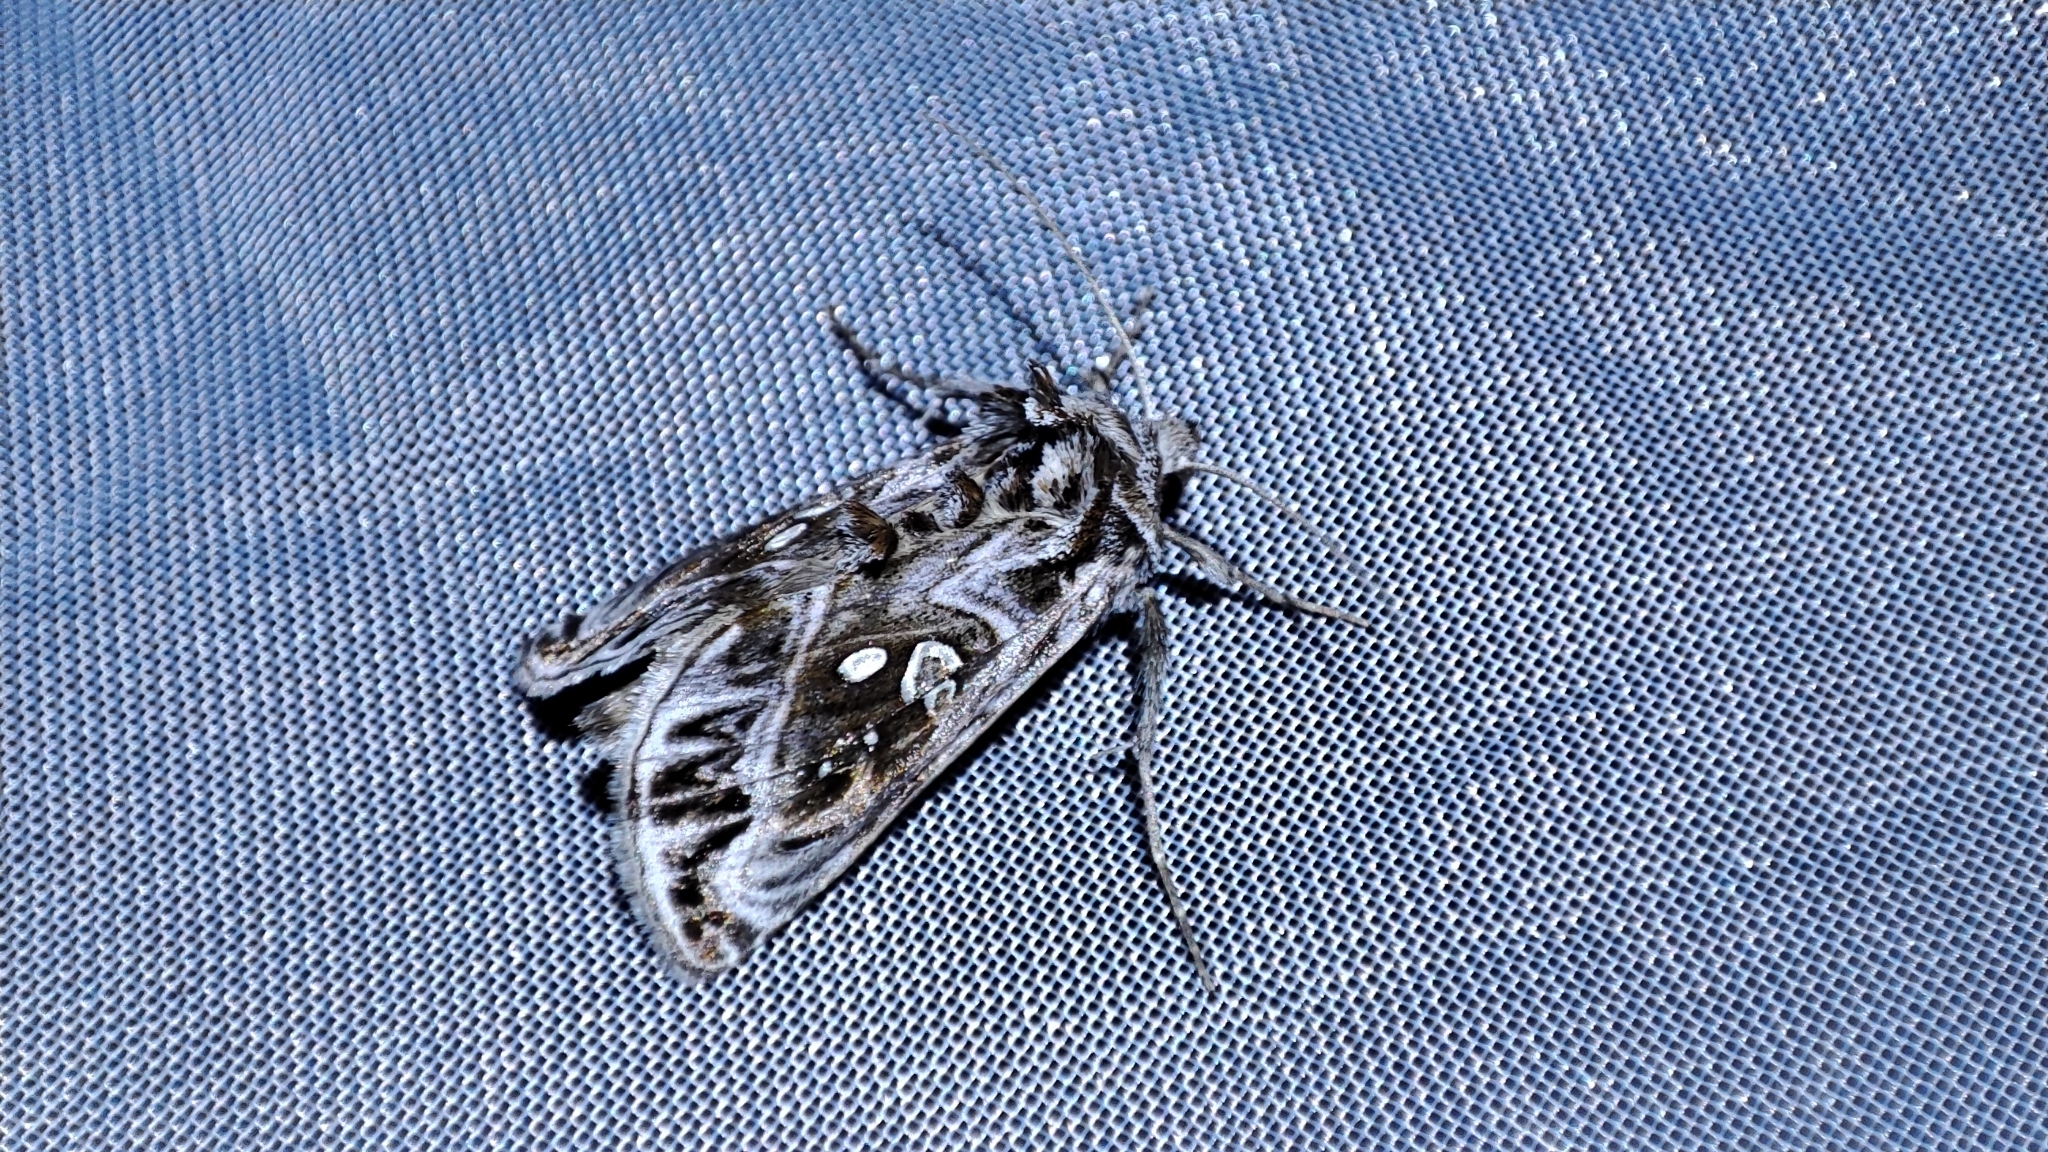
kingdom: Animalia
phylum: Arthropoda
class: Insecta
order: Lepidoptera
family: Noctuidae
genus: Panchrysia
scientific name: Panchrysia ornata
